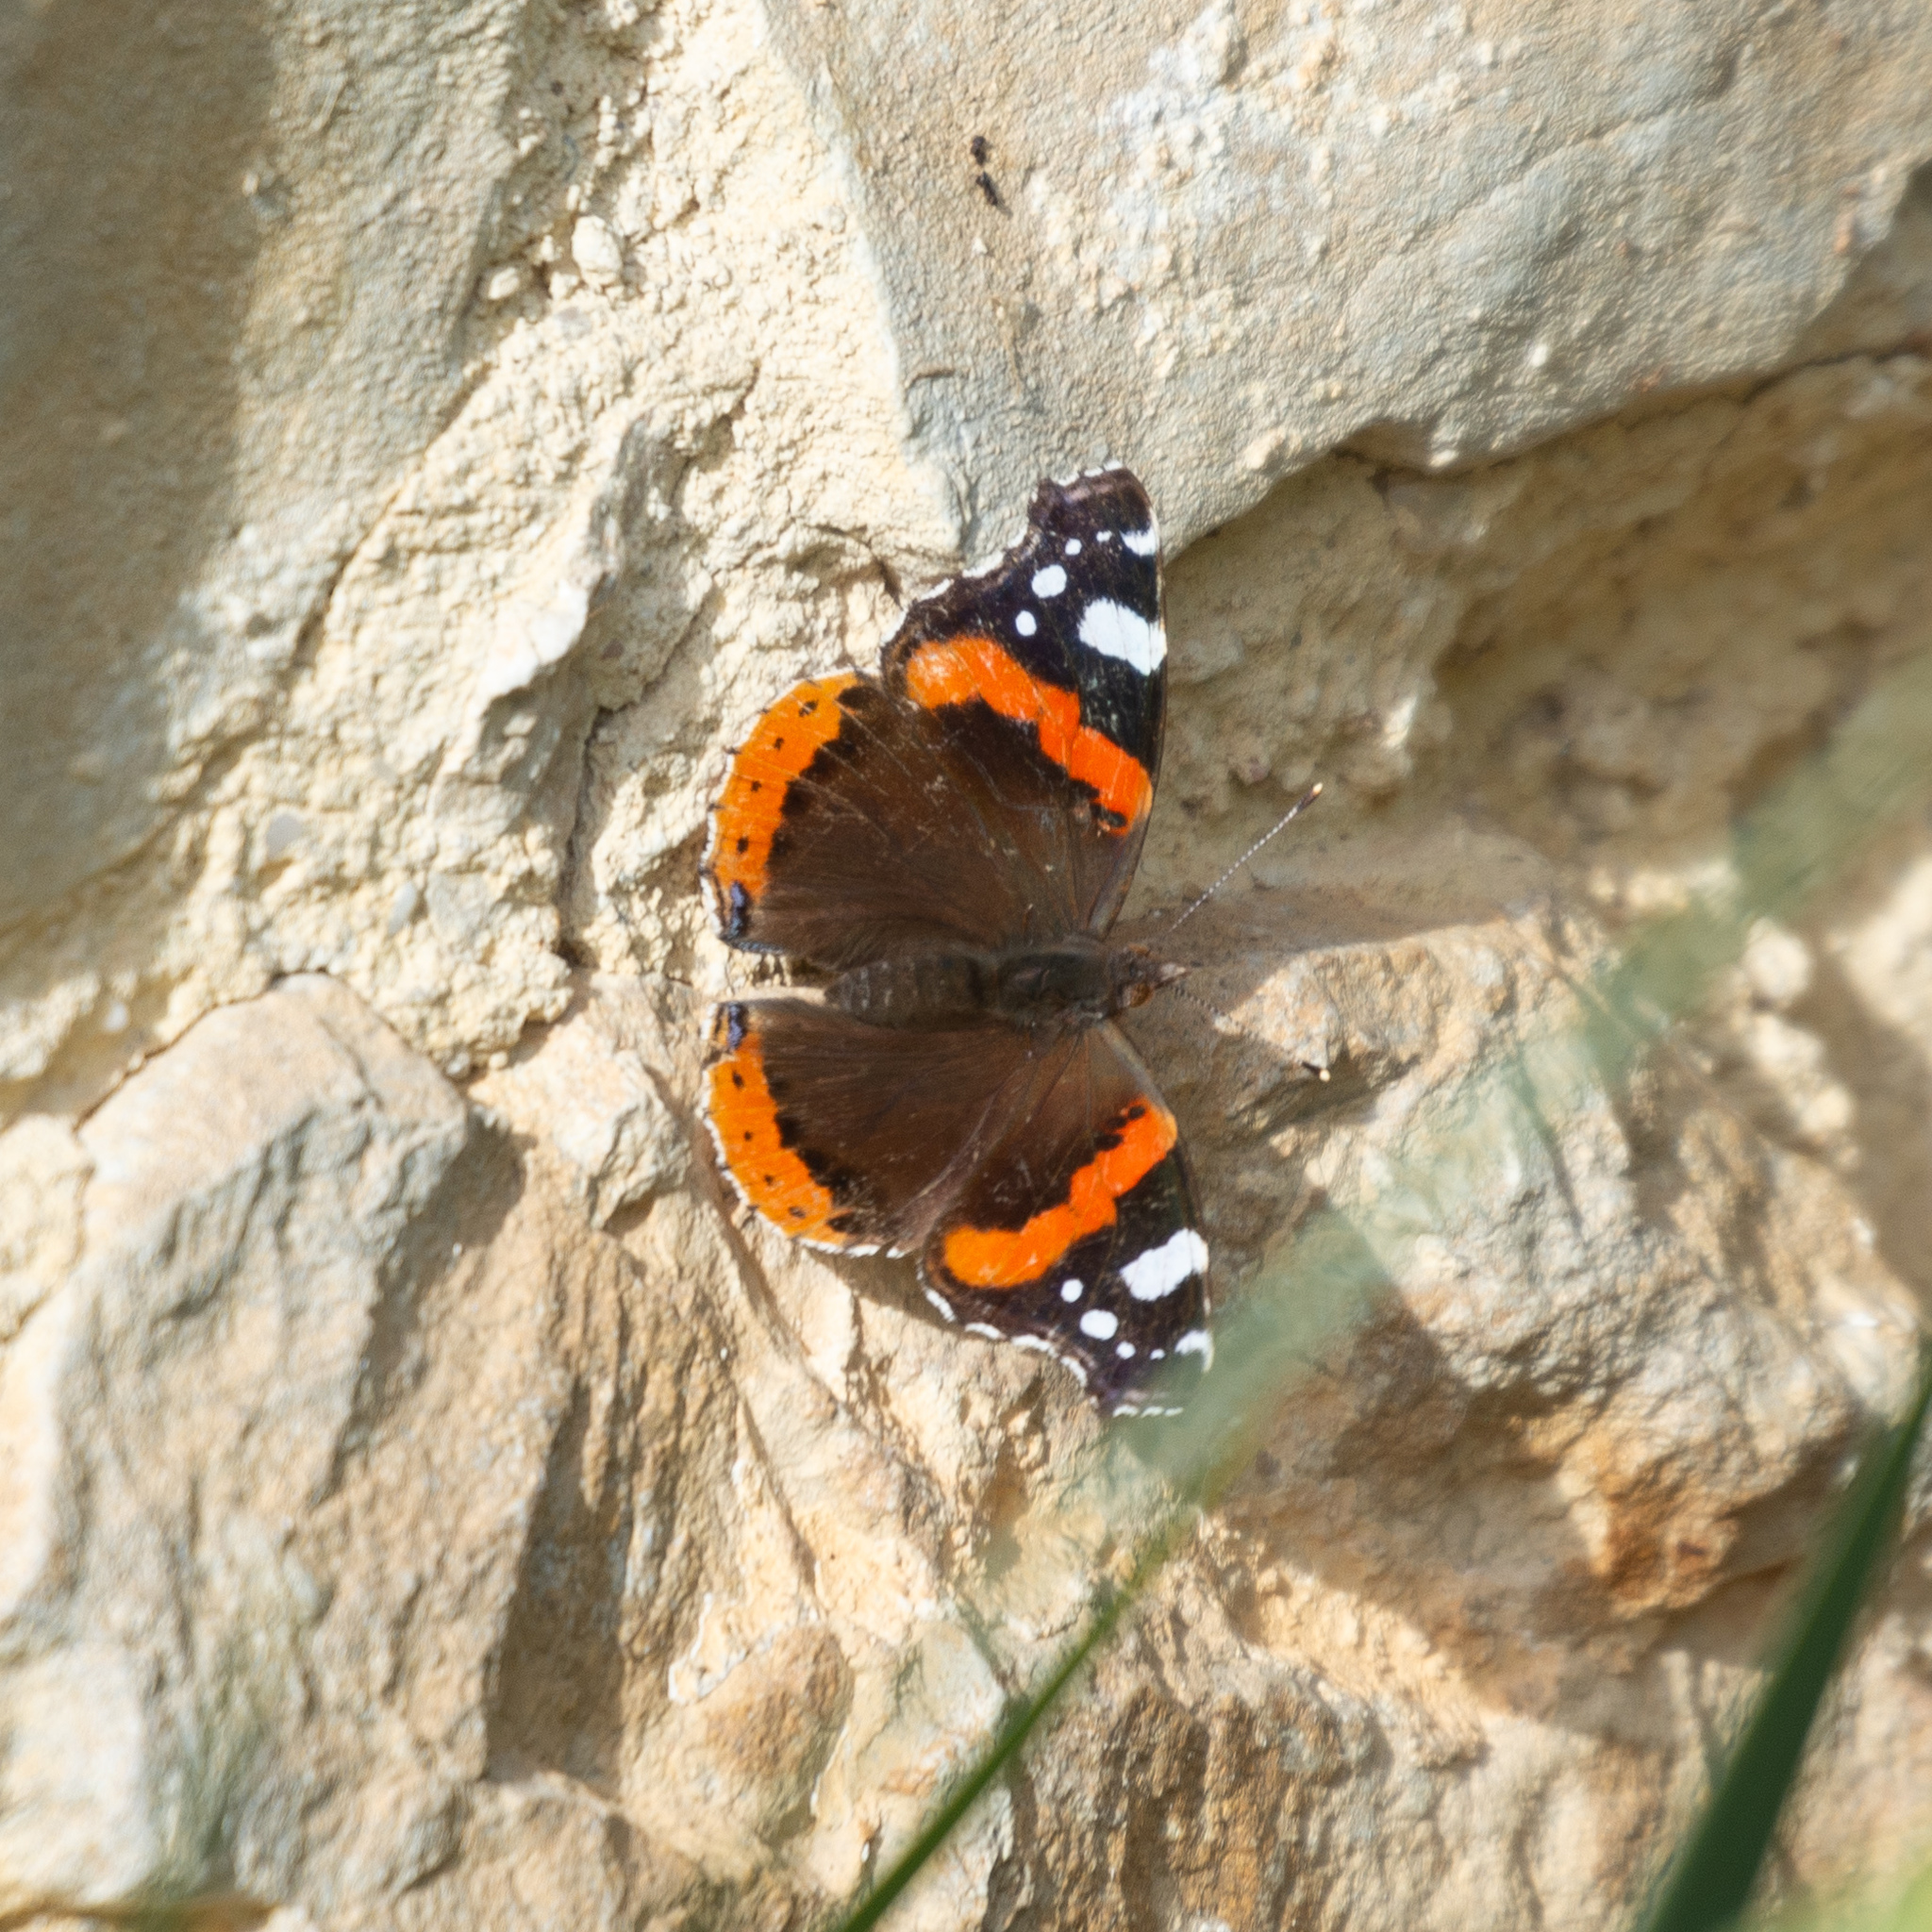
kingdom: Animalia
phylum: Arthropoda
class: Insecta
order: Lepidoptera
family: Nymphalidae
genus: Vanessa
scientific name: Vanessa atalanta
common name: Red admiral
